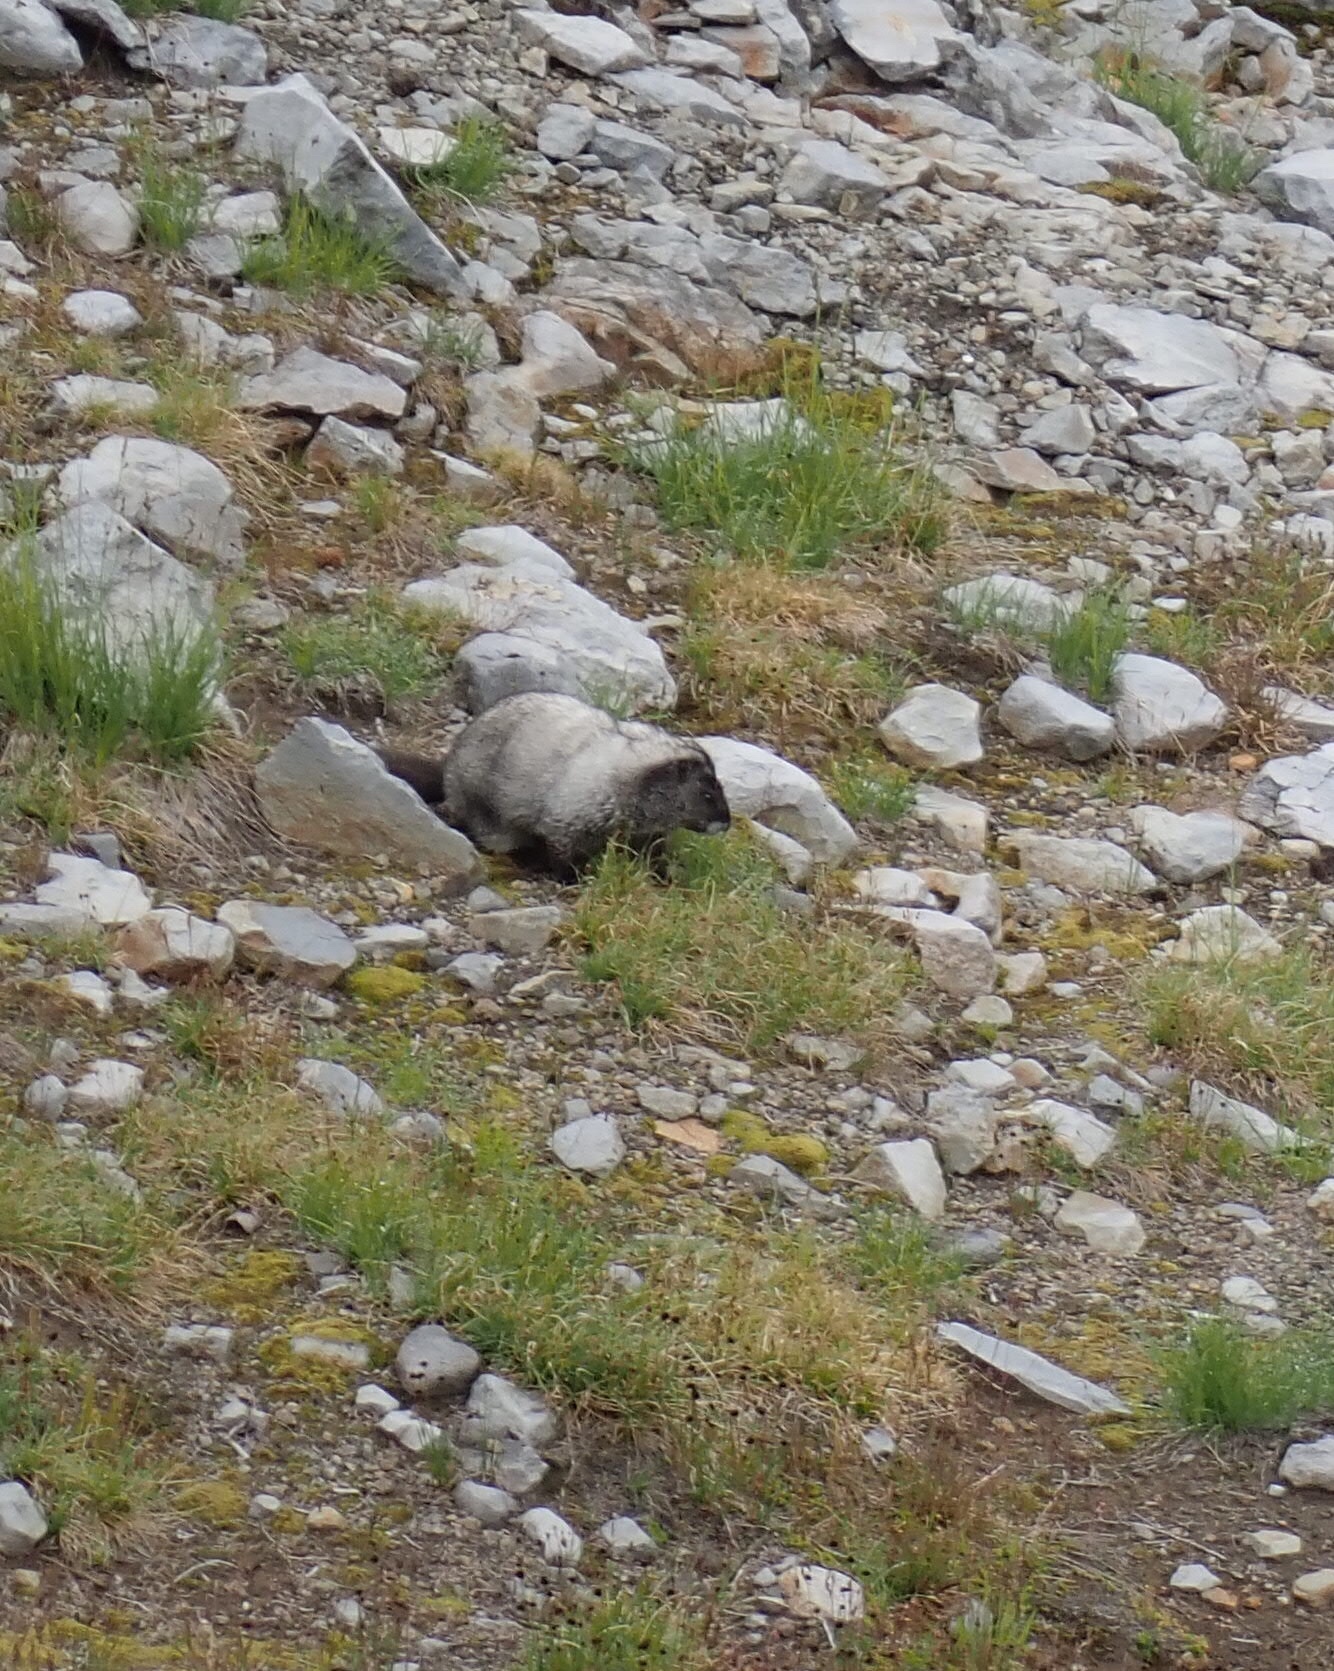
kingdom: Animalia
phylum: Chordata
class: Mammalia
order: Rodentia
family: Sciuridae
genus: Marmota
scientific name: Marmota caligata
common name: Hoary marmot
